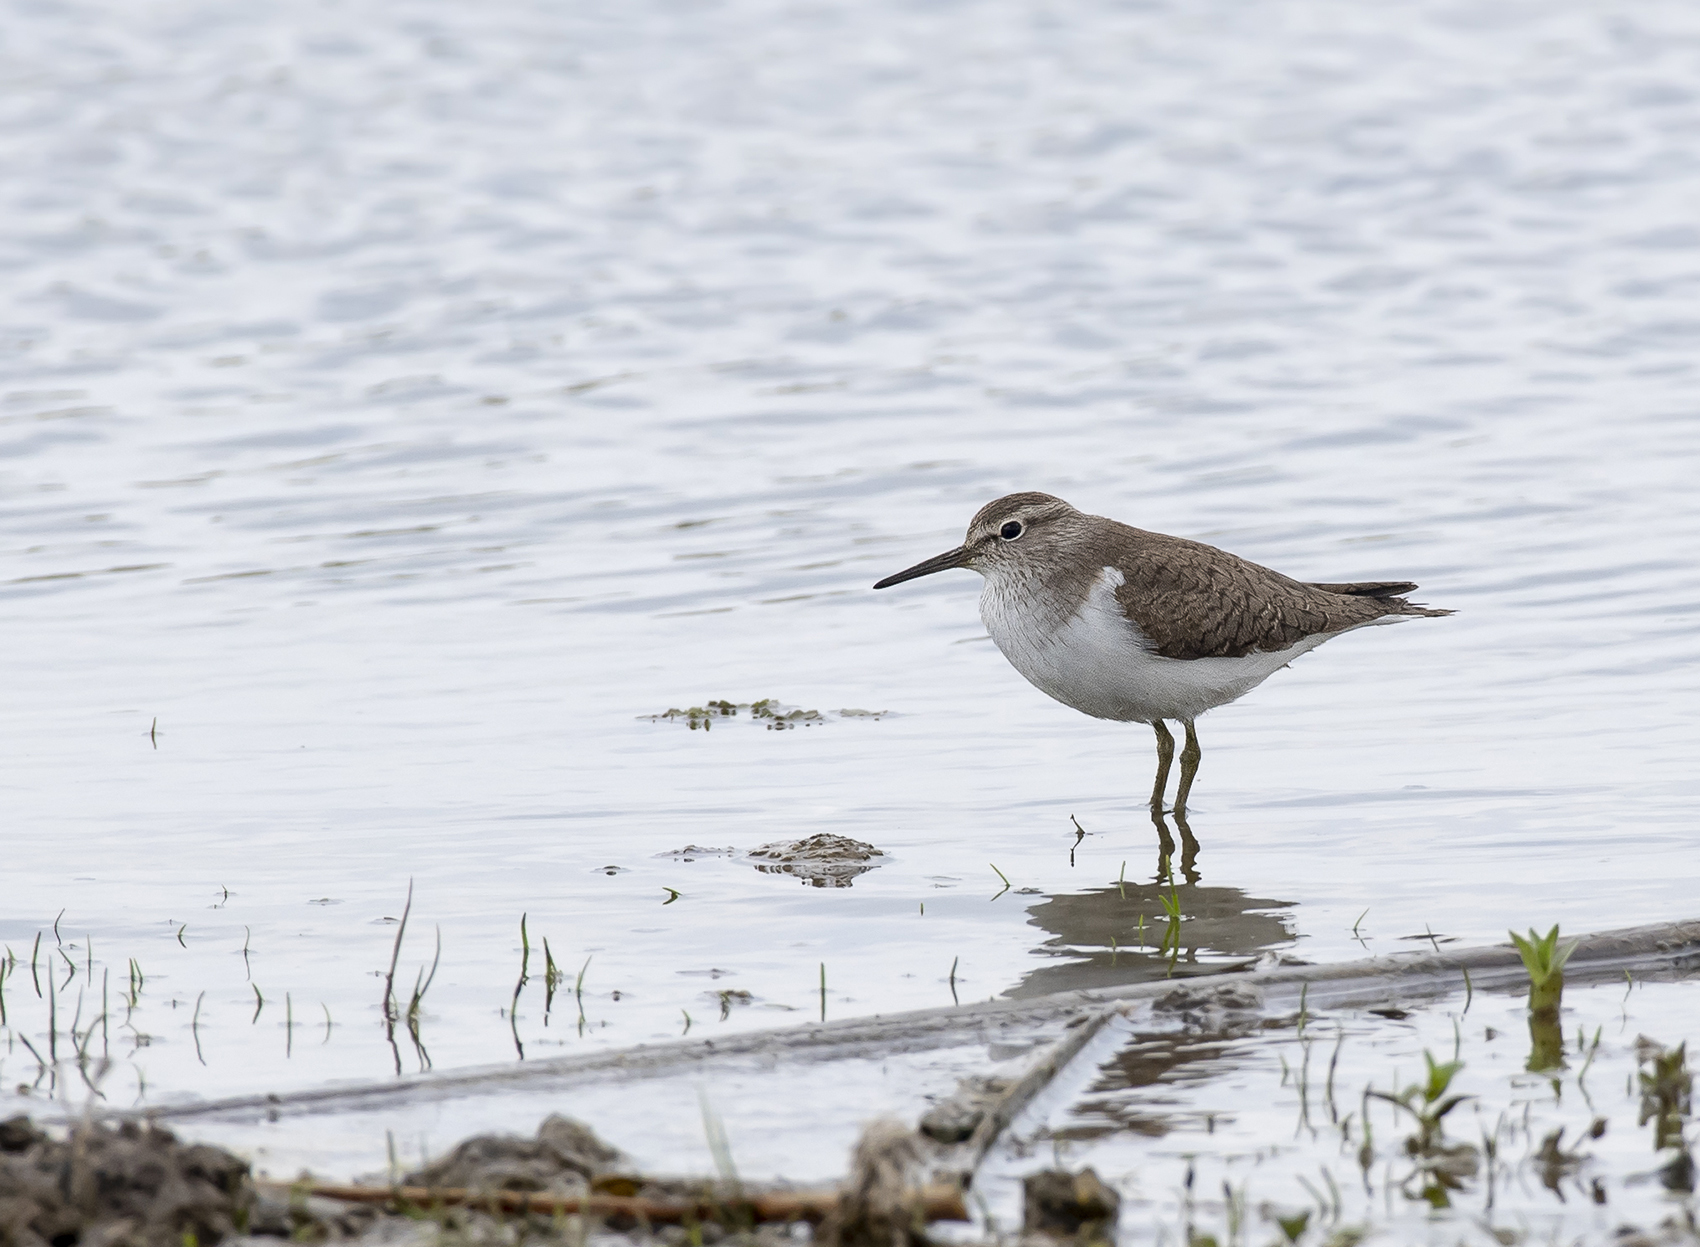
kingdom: Animalia
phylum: Chordata
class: Aves
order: Charadriiformes
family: Scolopacidae
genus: Actitis
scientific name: Actitis hypoleucos
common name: Common sandpiper
